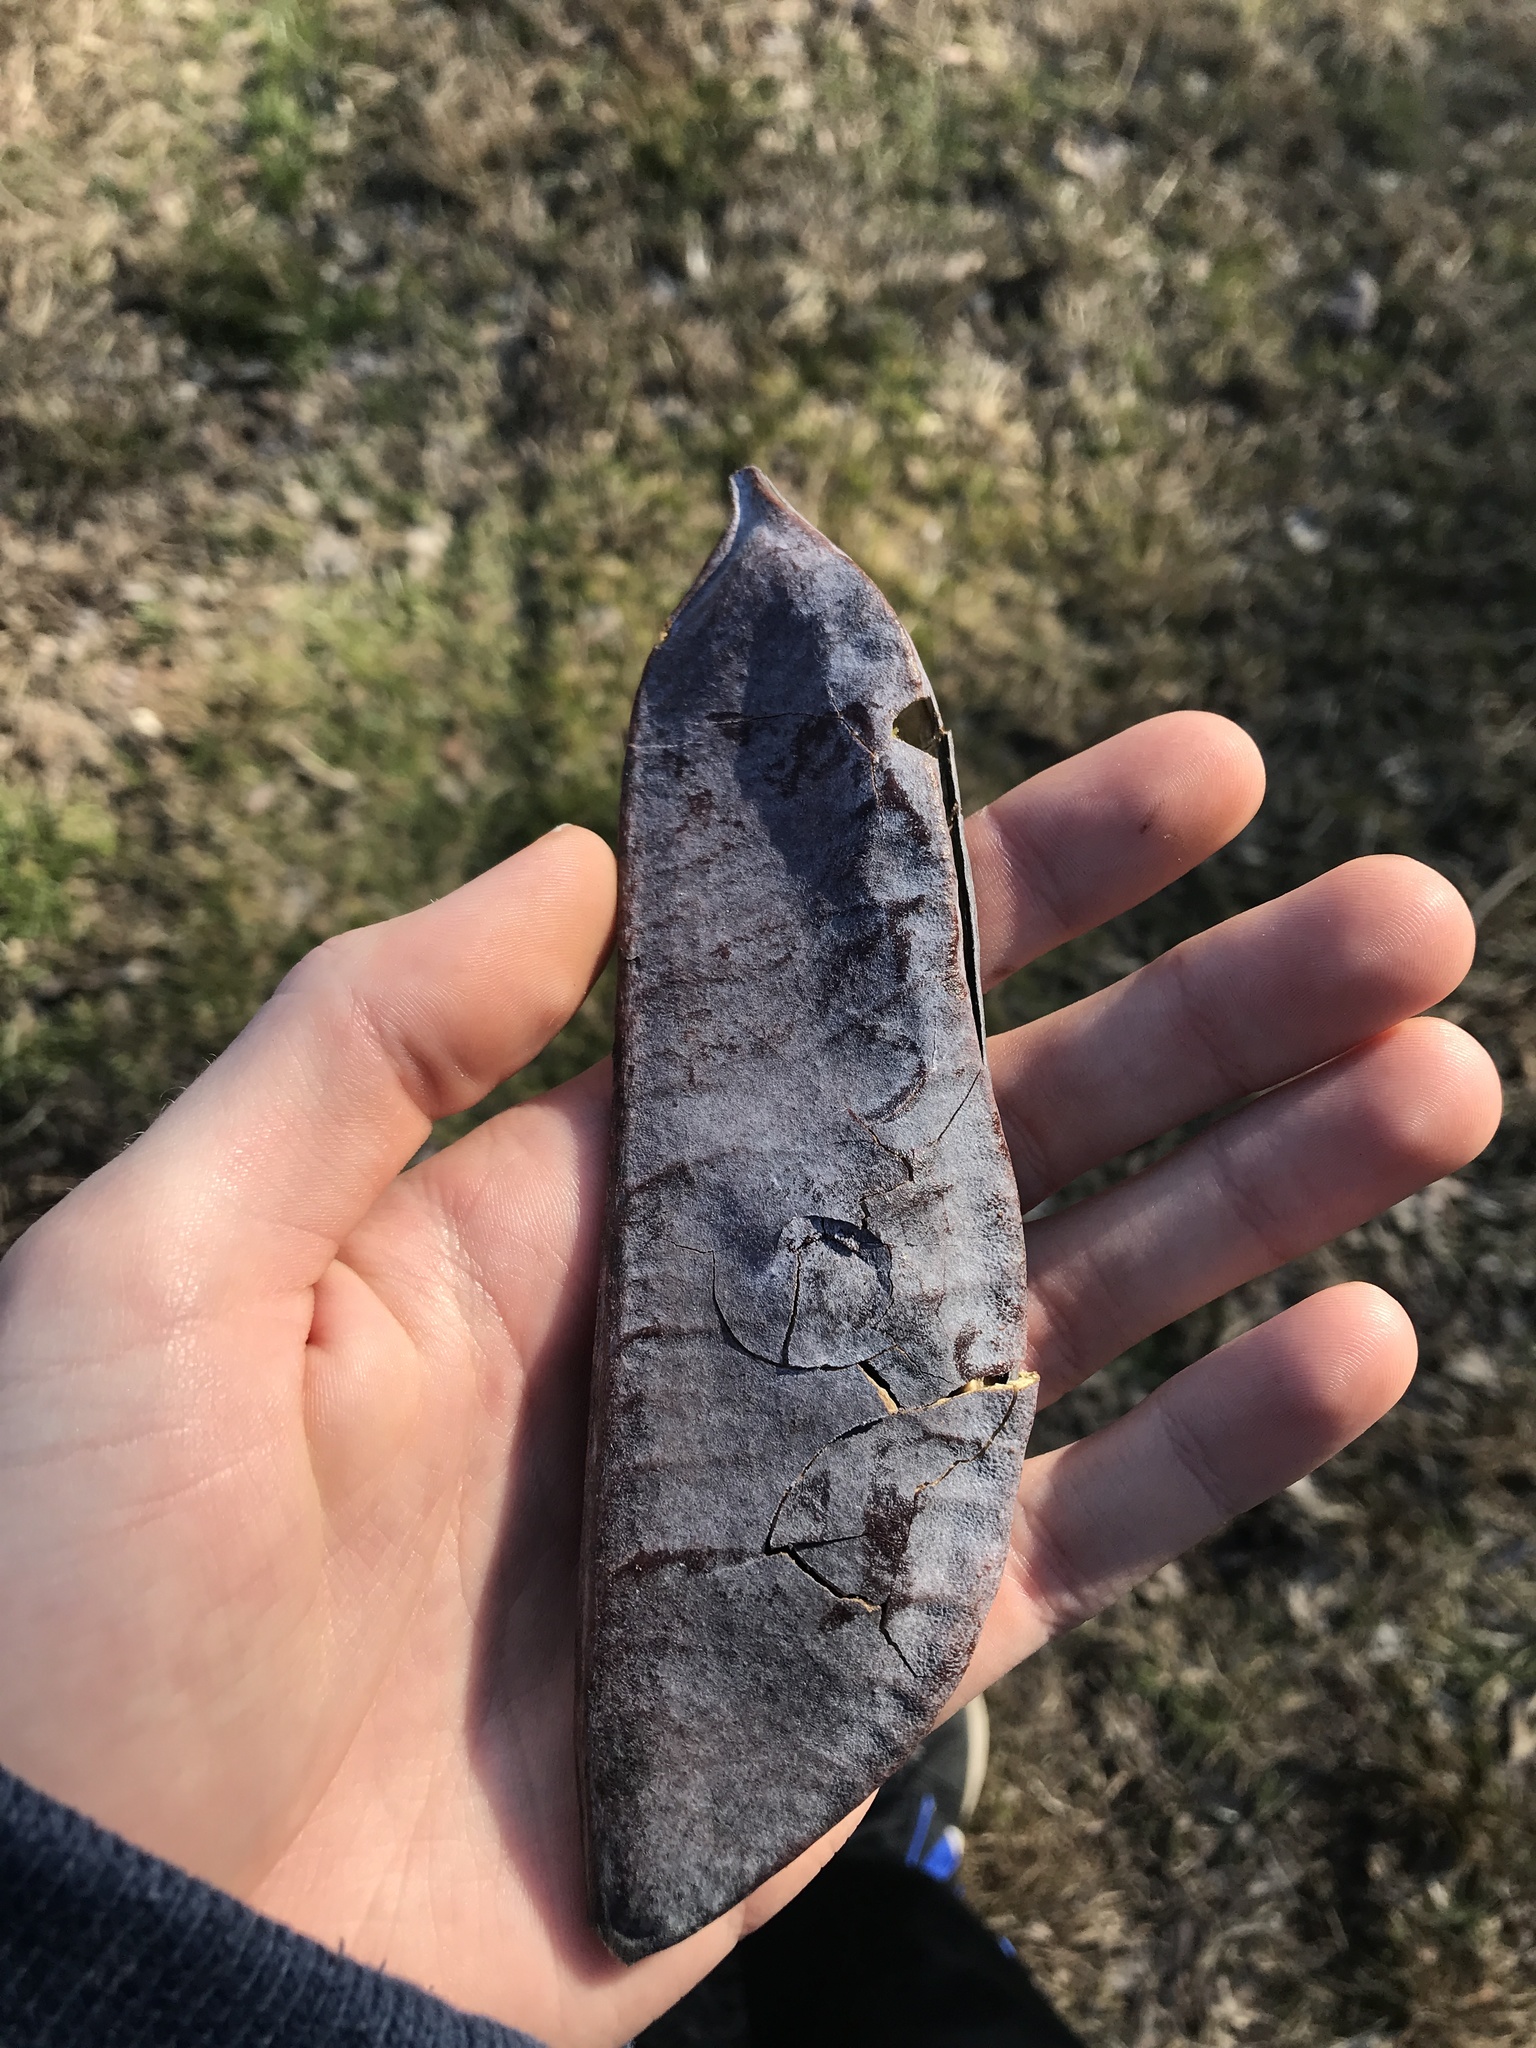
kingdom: Plantae
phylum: Tracheophyta
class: Magnoliopsida
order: Fabales
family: Fabaceae
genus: Gymnocladus
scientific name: Gymnocladus dioicus
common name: Kentucky coffee-tree
